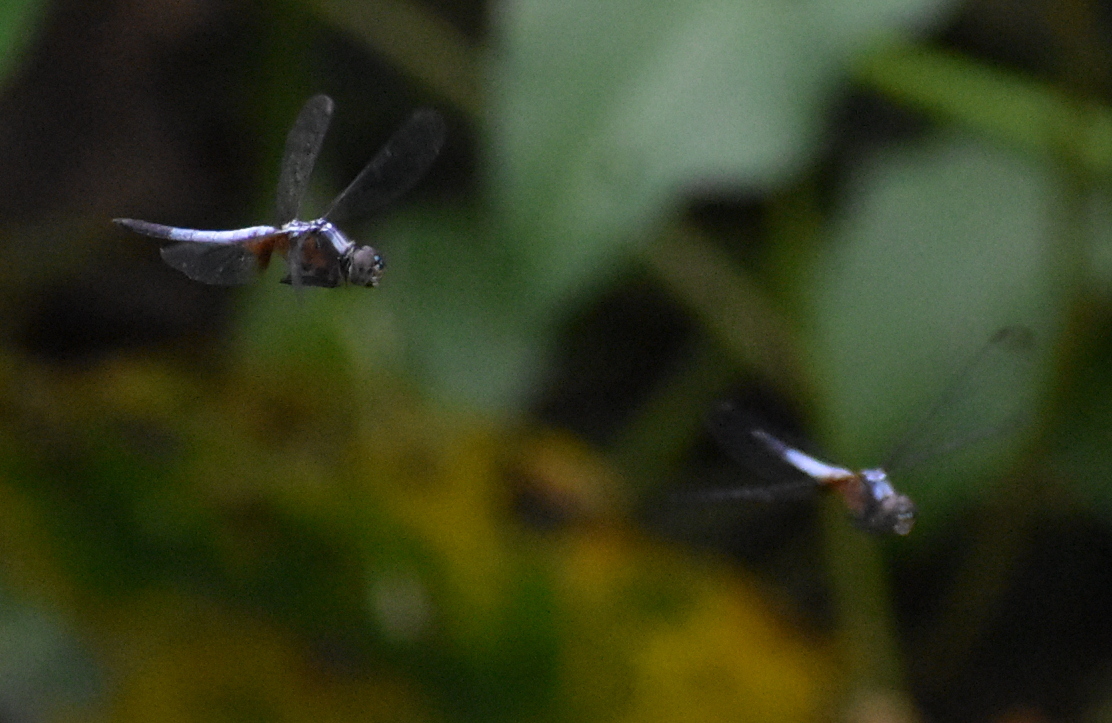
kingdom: Animalia
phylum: Arthropoda
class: Insecta
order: Odonata
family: Libellulidae
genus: Brachydiplax
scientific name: Brachydiplax chalybea
